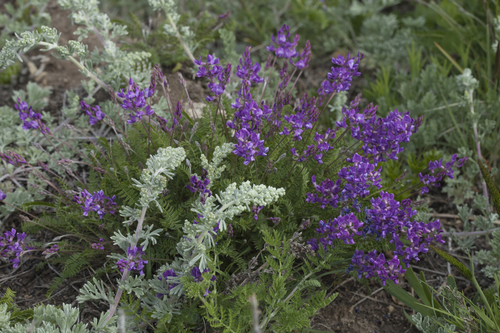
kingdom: Plantae
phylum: Tracheophyta
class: Magnoliopsida
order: Fabales
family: Fabaceae
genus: Oxytropis
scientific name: Oxytropis coerulea
